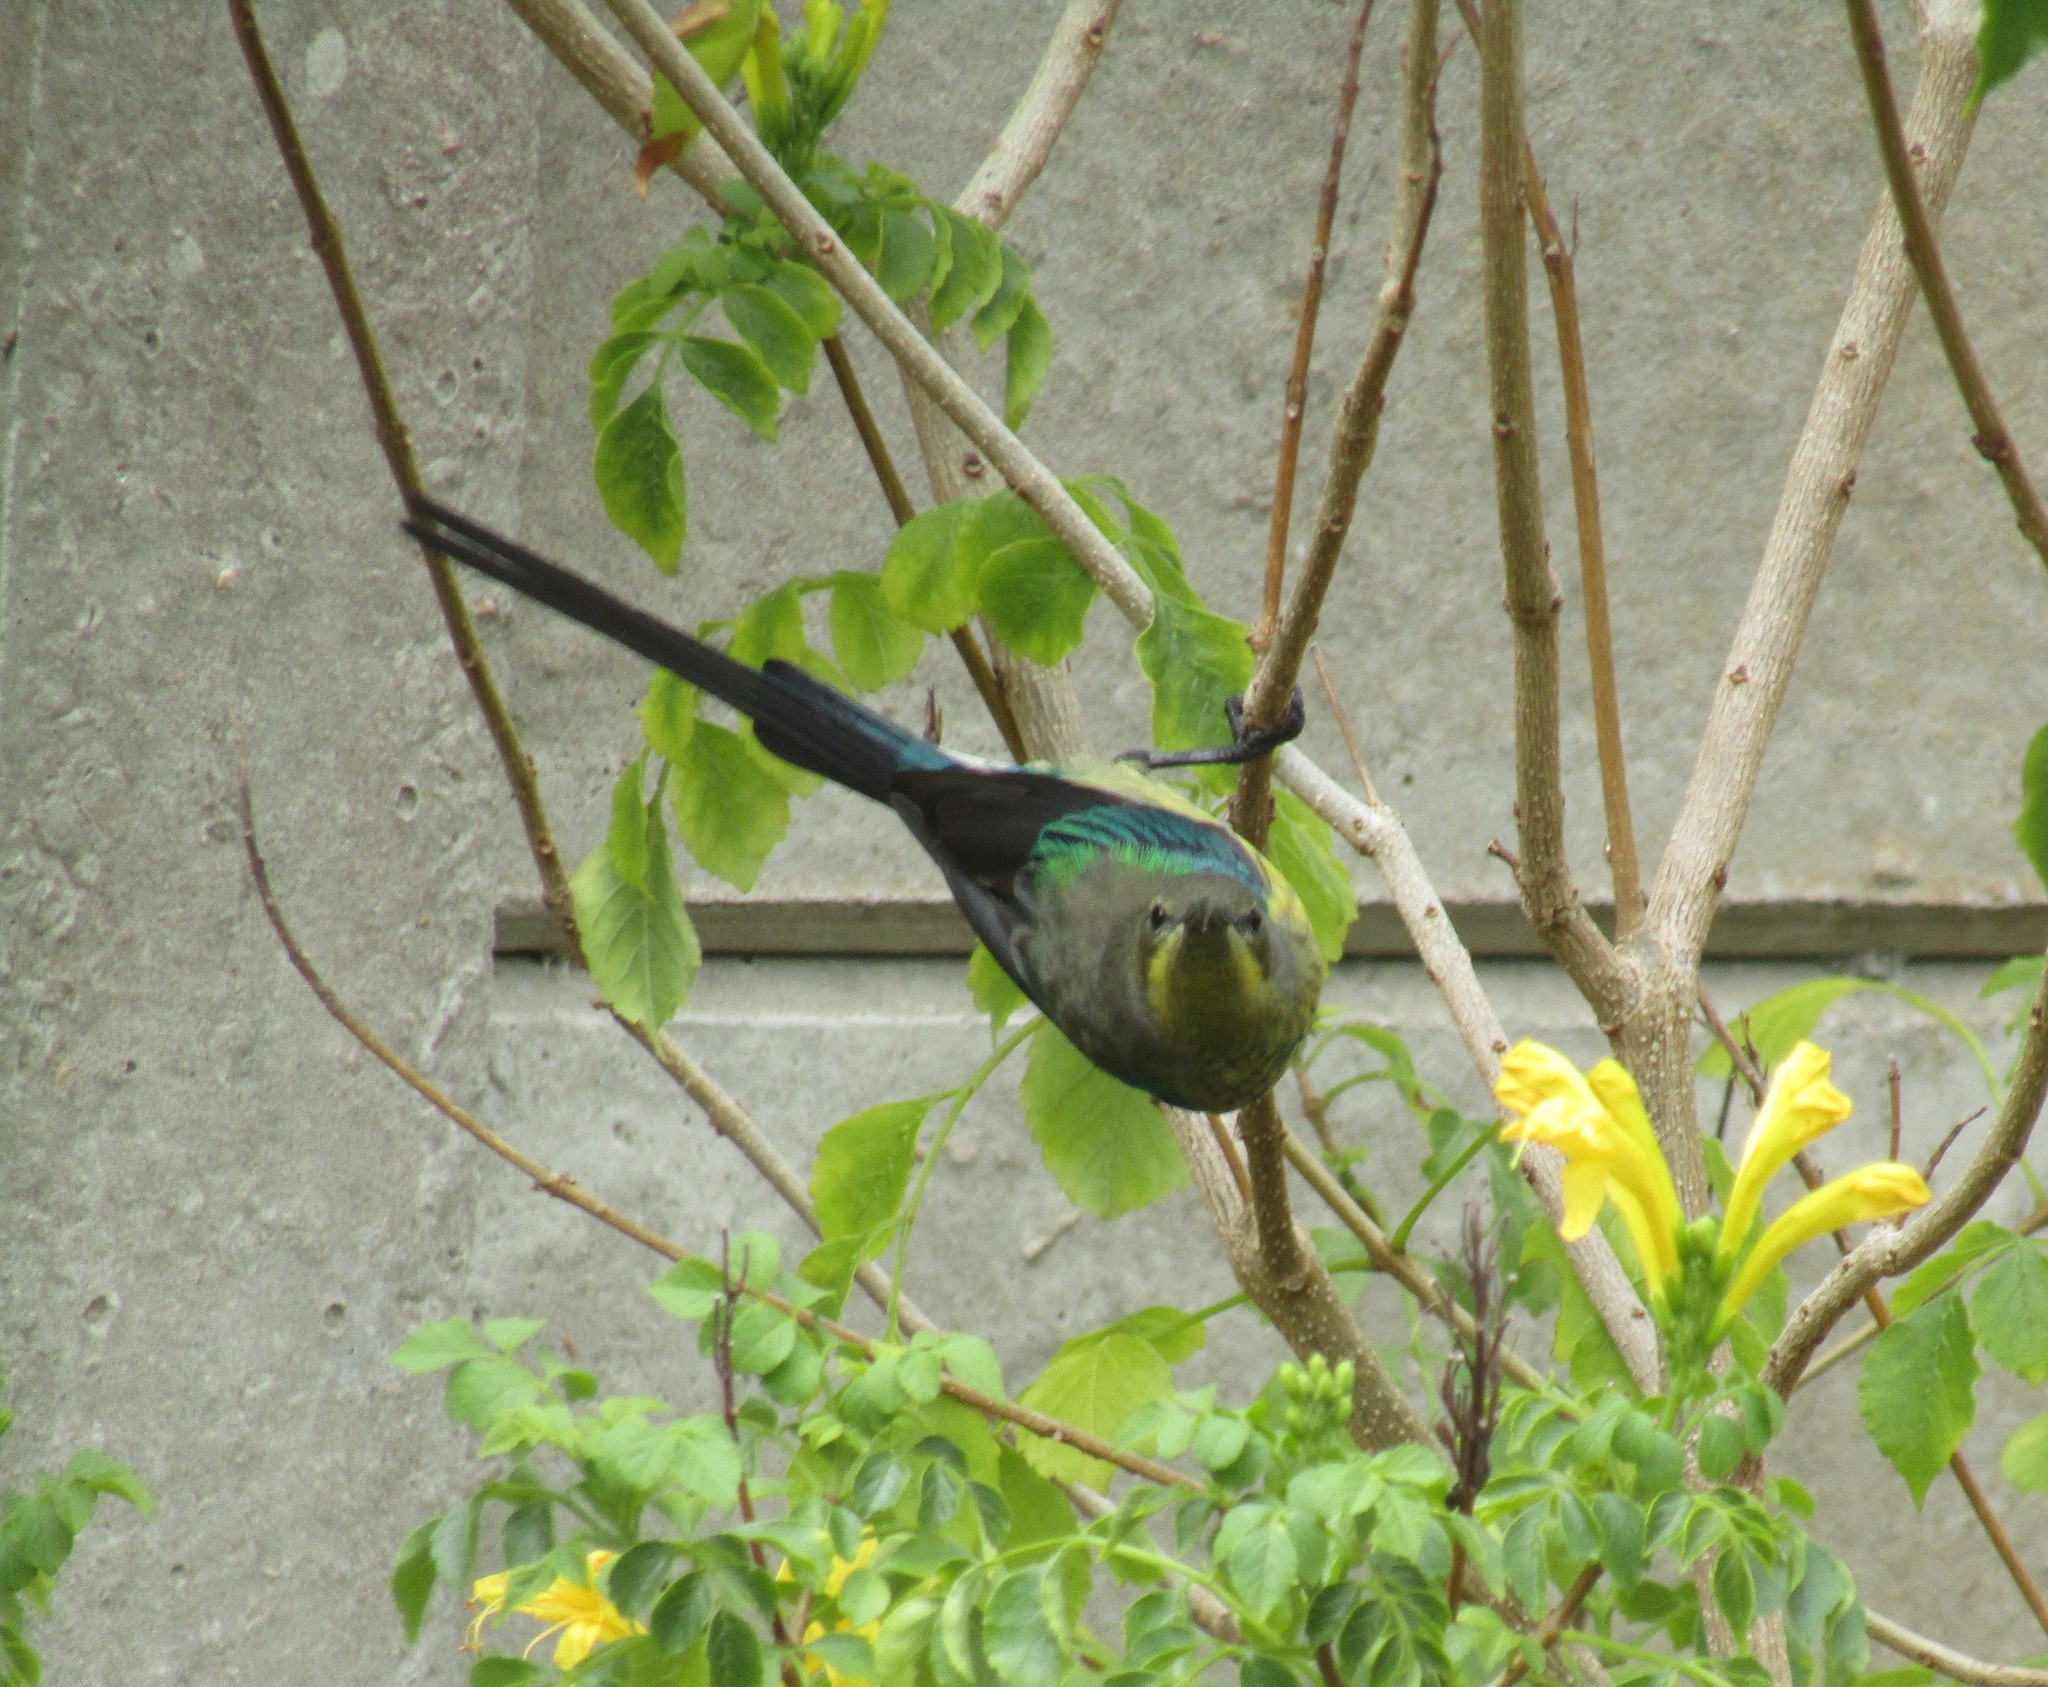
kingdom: Animalia
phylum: Chordata
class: Aves
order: Passeriformes
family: Nectariniidae
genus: Nectarinia
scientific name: Nectarinia famosa
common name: Malachite sunbird
